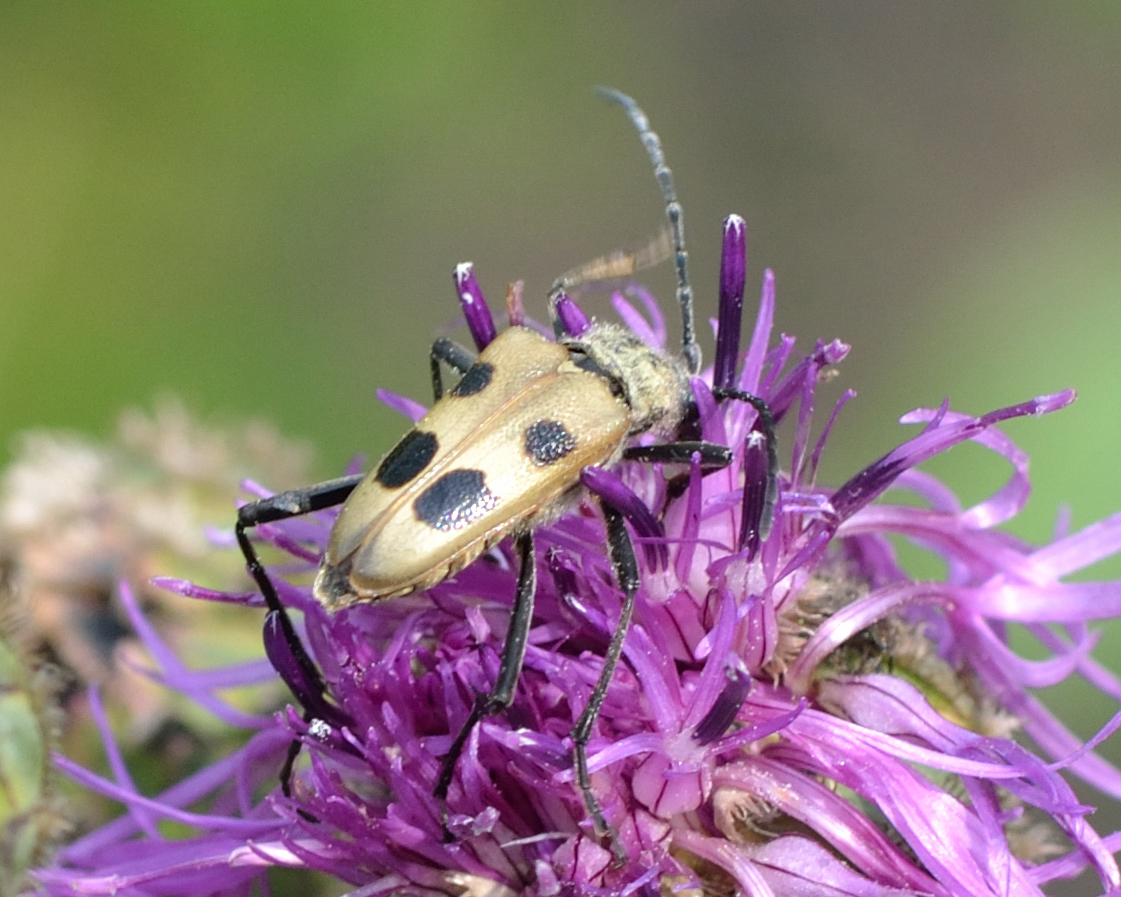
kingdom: Animalia
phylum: Arthropoda
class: Insecta
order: Coleoptera
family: Cerambycidae
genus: Pachyta
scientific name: Pachyta quadrimaculata
